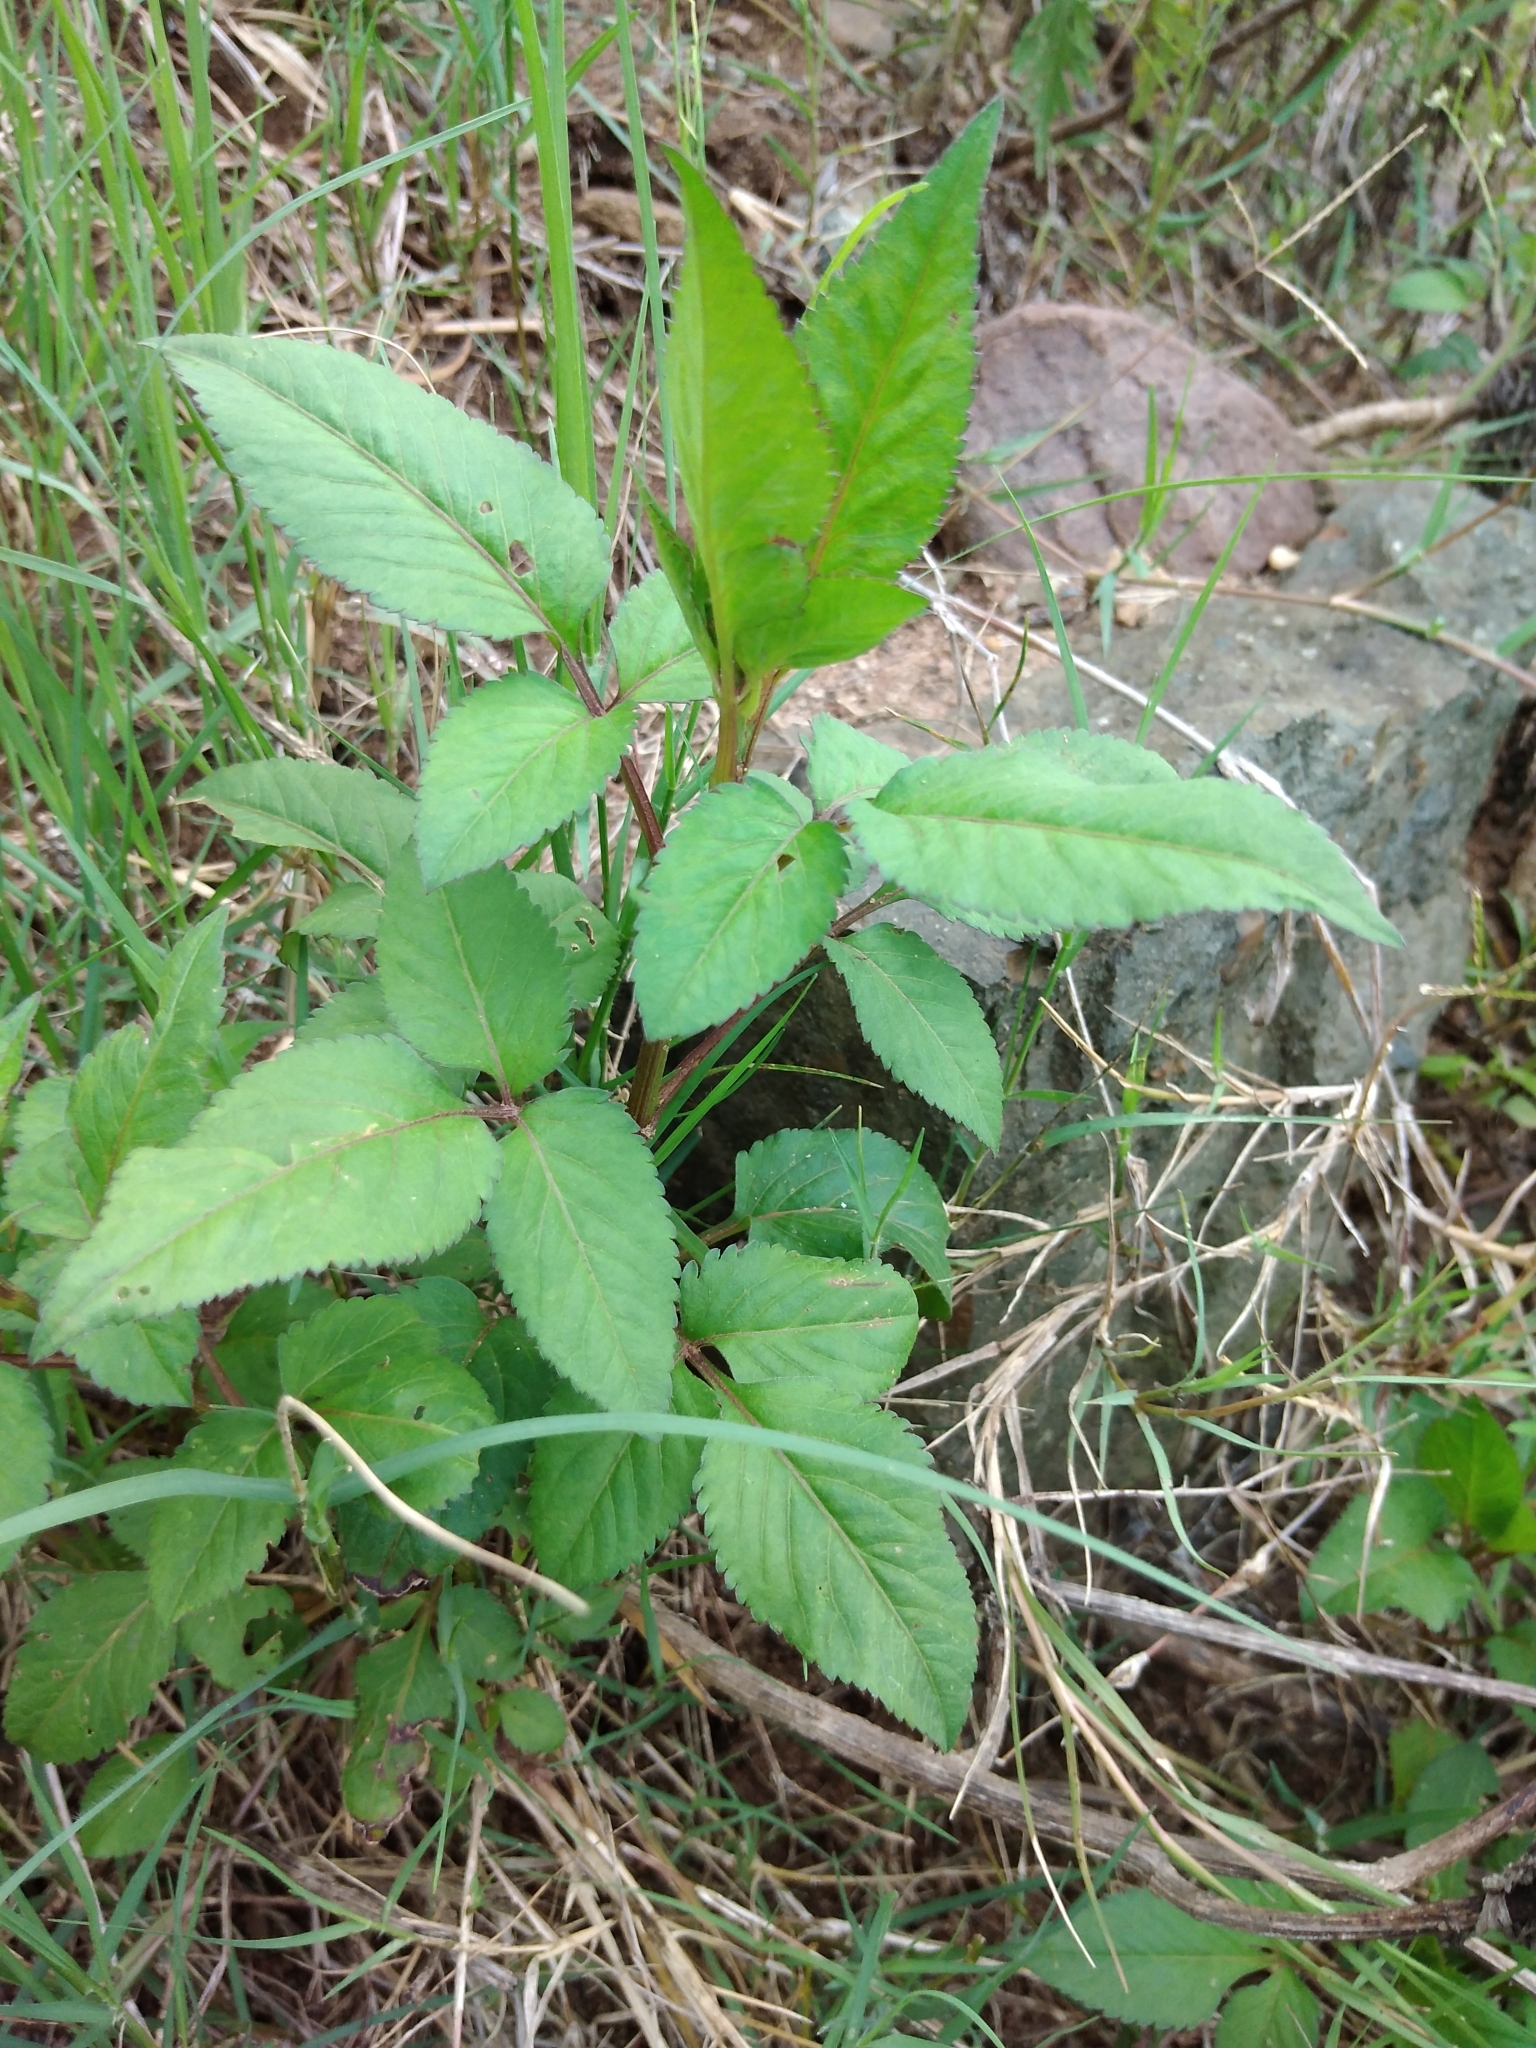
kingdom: Plantae
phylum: Tracheophyta
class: Magnoliopsida
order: Asterales
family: Asteraceae
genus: Bidens
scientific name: Bidens pilosa
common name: Black-jack
